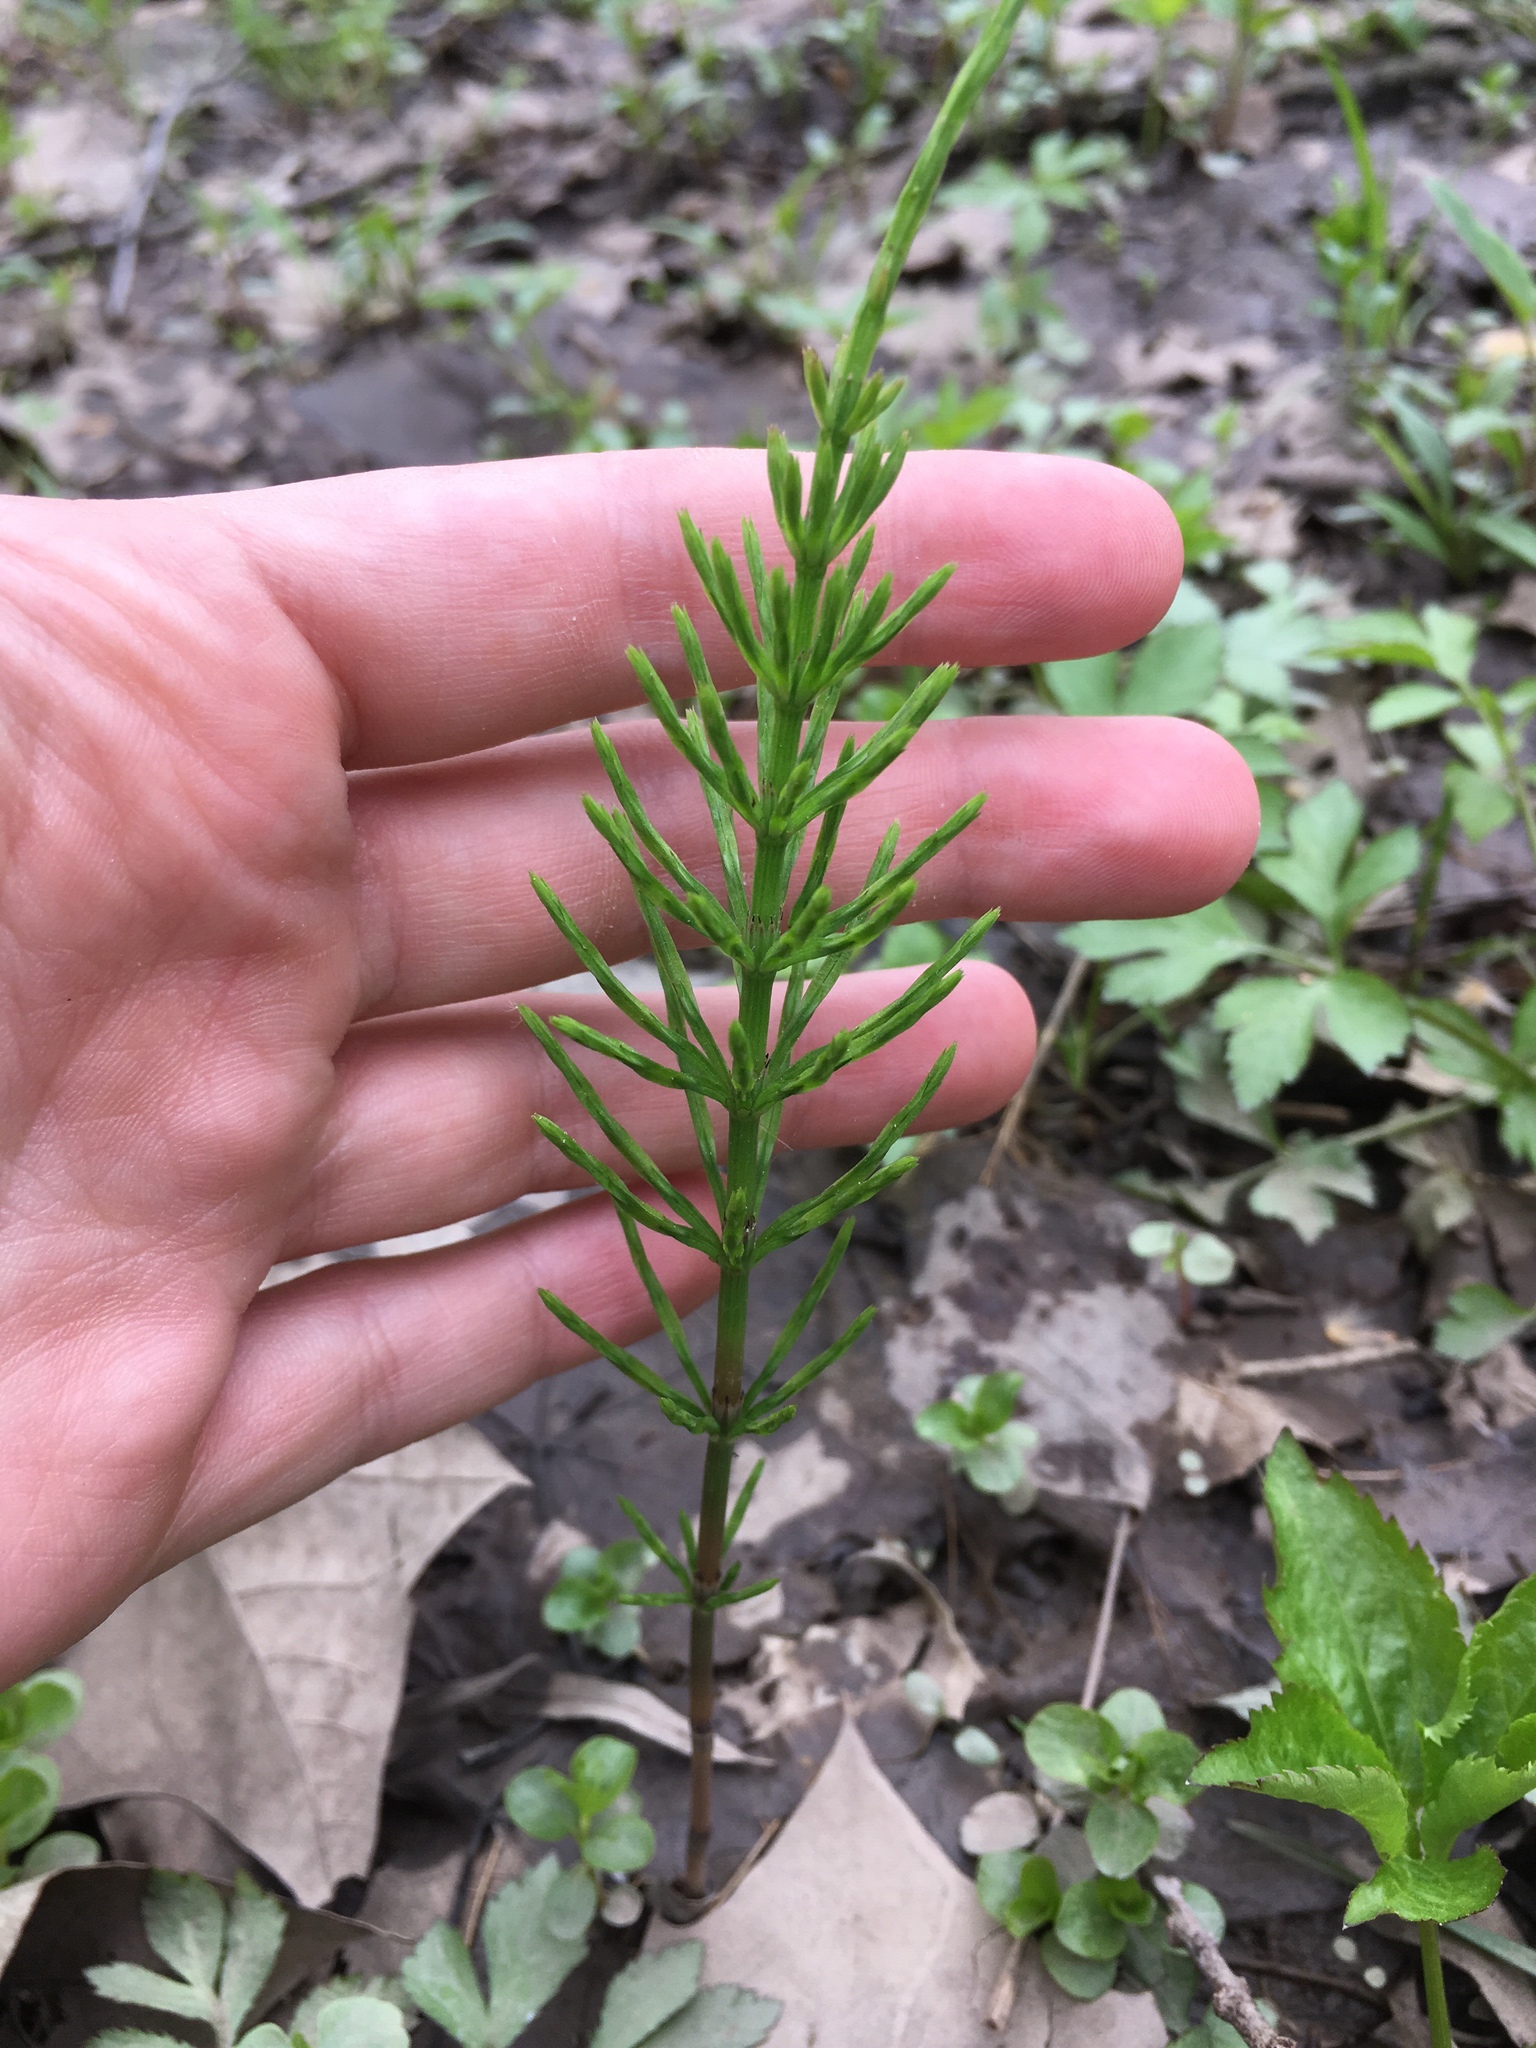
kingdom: Plantae
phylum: Tracheophyta
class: Polypodiopsida
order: Equisetales
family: Equisetaceae
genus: Equisetum
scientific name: Equisetum arvense
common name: Field horsetail
